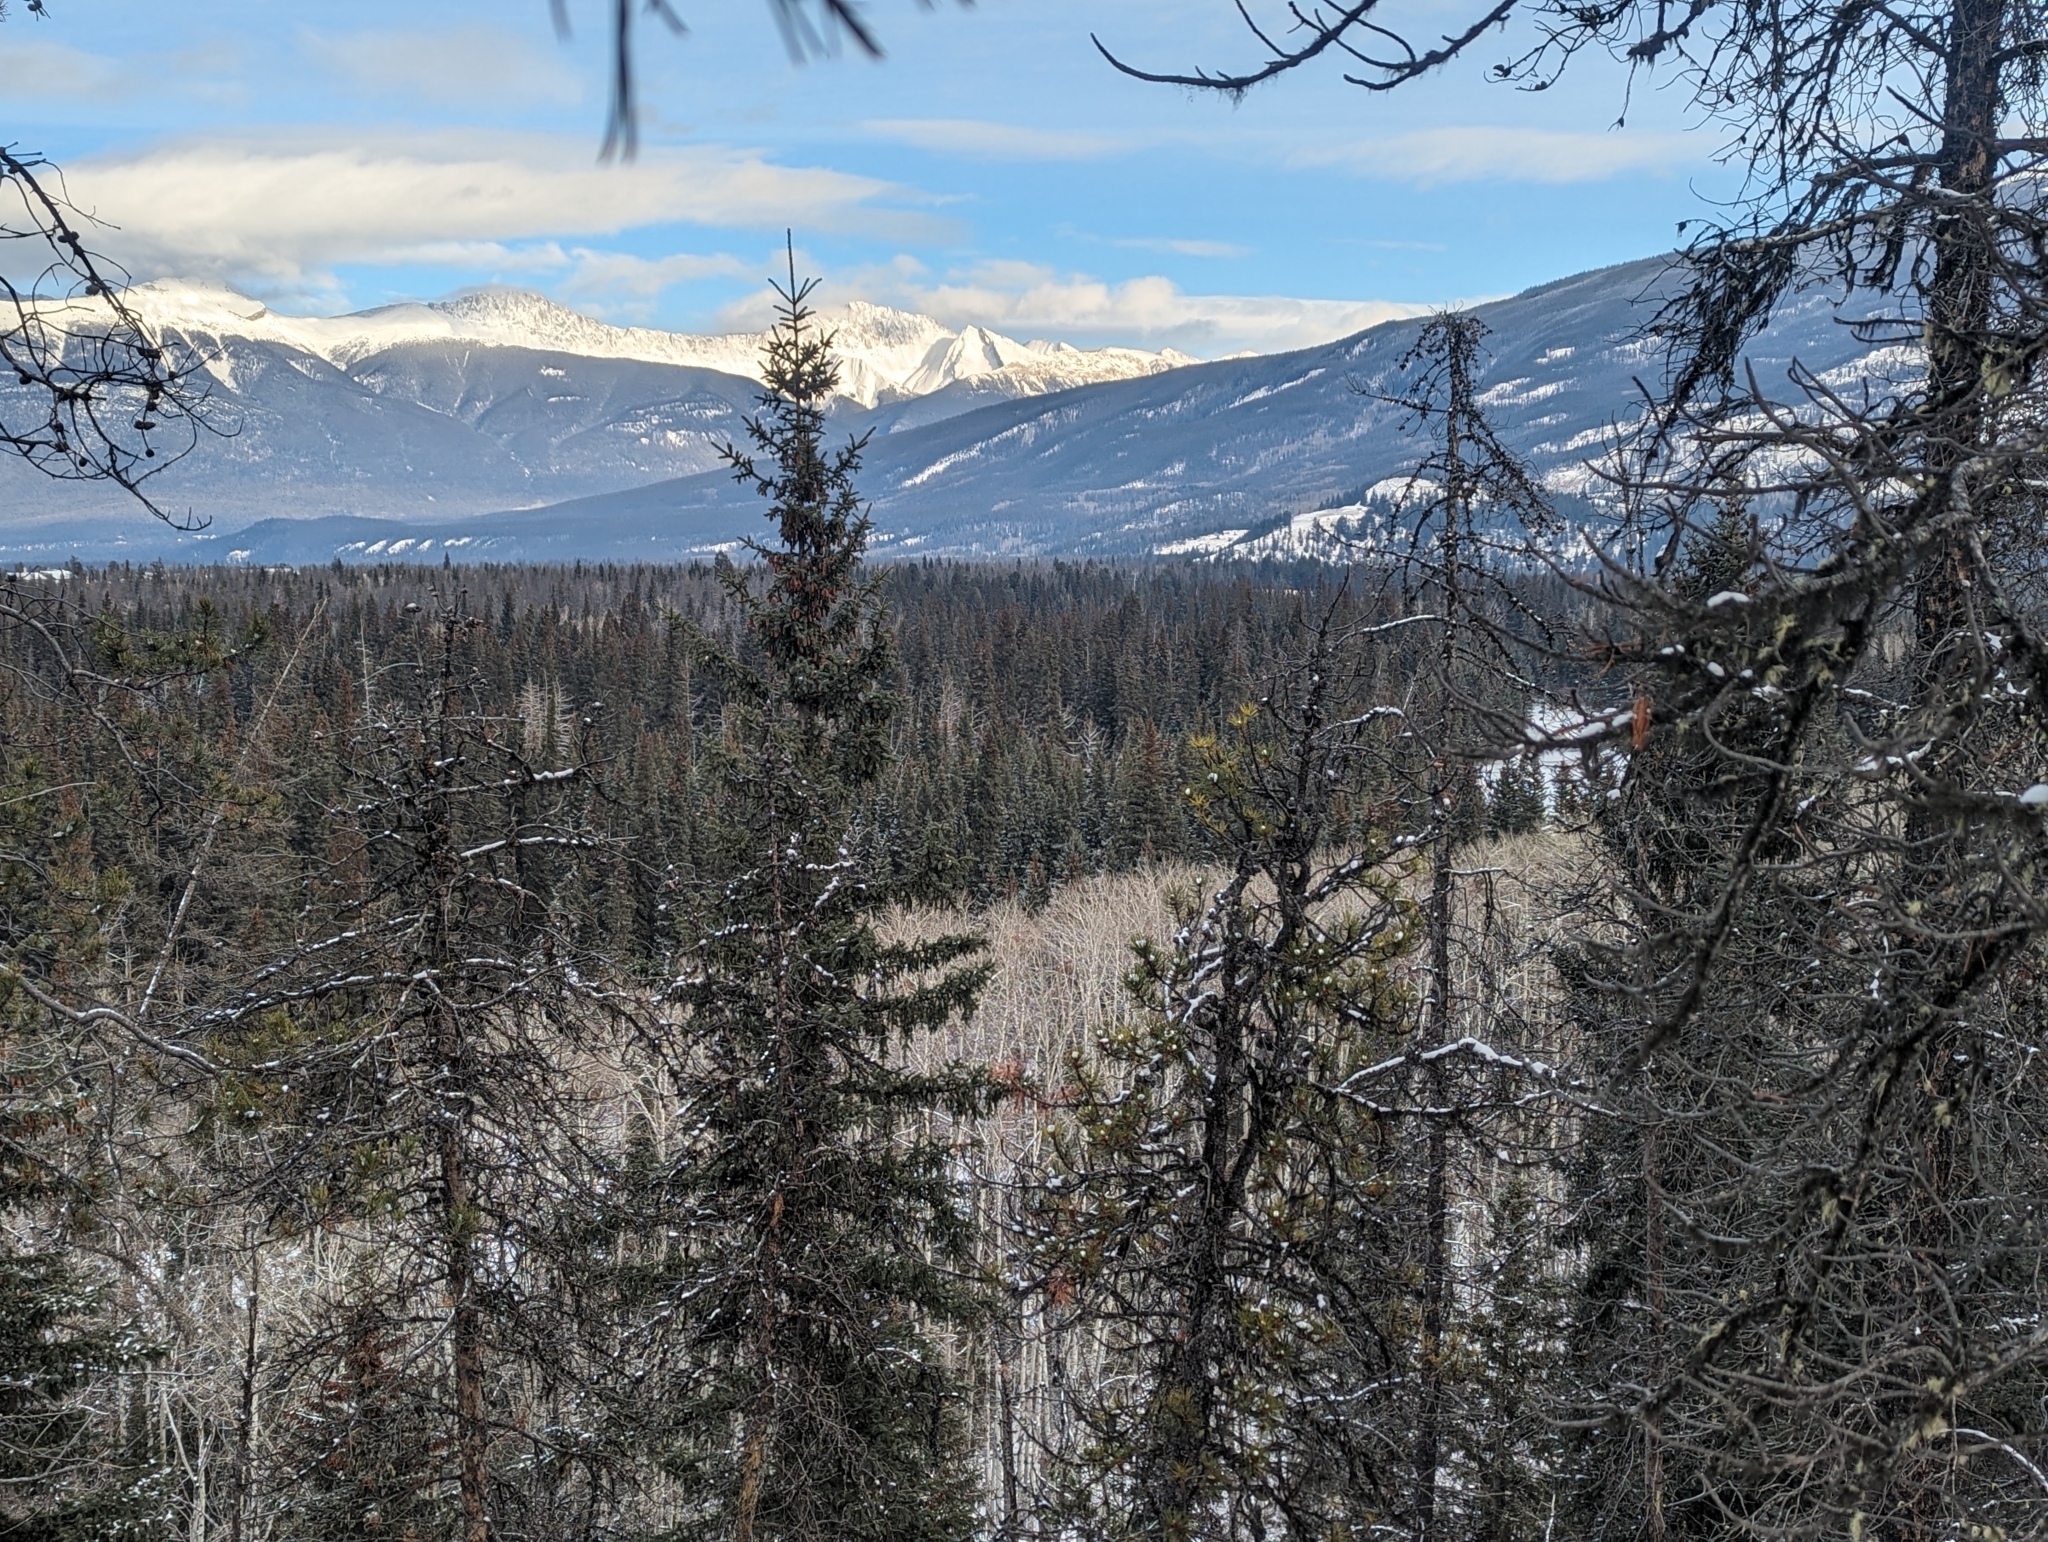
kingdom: Plantae
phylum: Tracheophyta
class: Magnoliopsida
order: Malpighiales
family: Salicaceae
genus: Populus
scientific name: Populus tremuloides
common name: Quaking aspen
